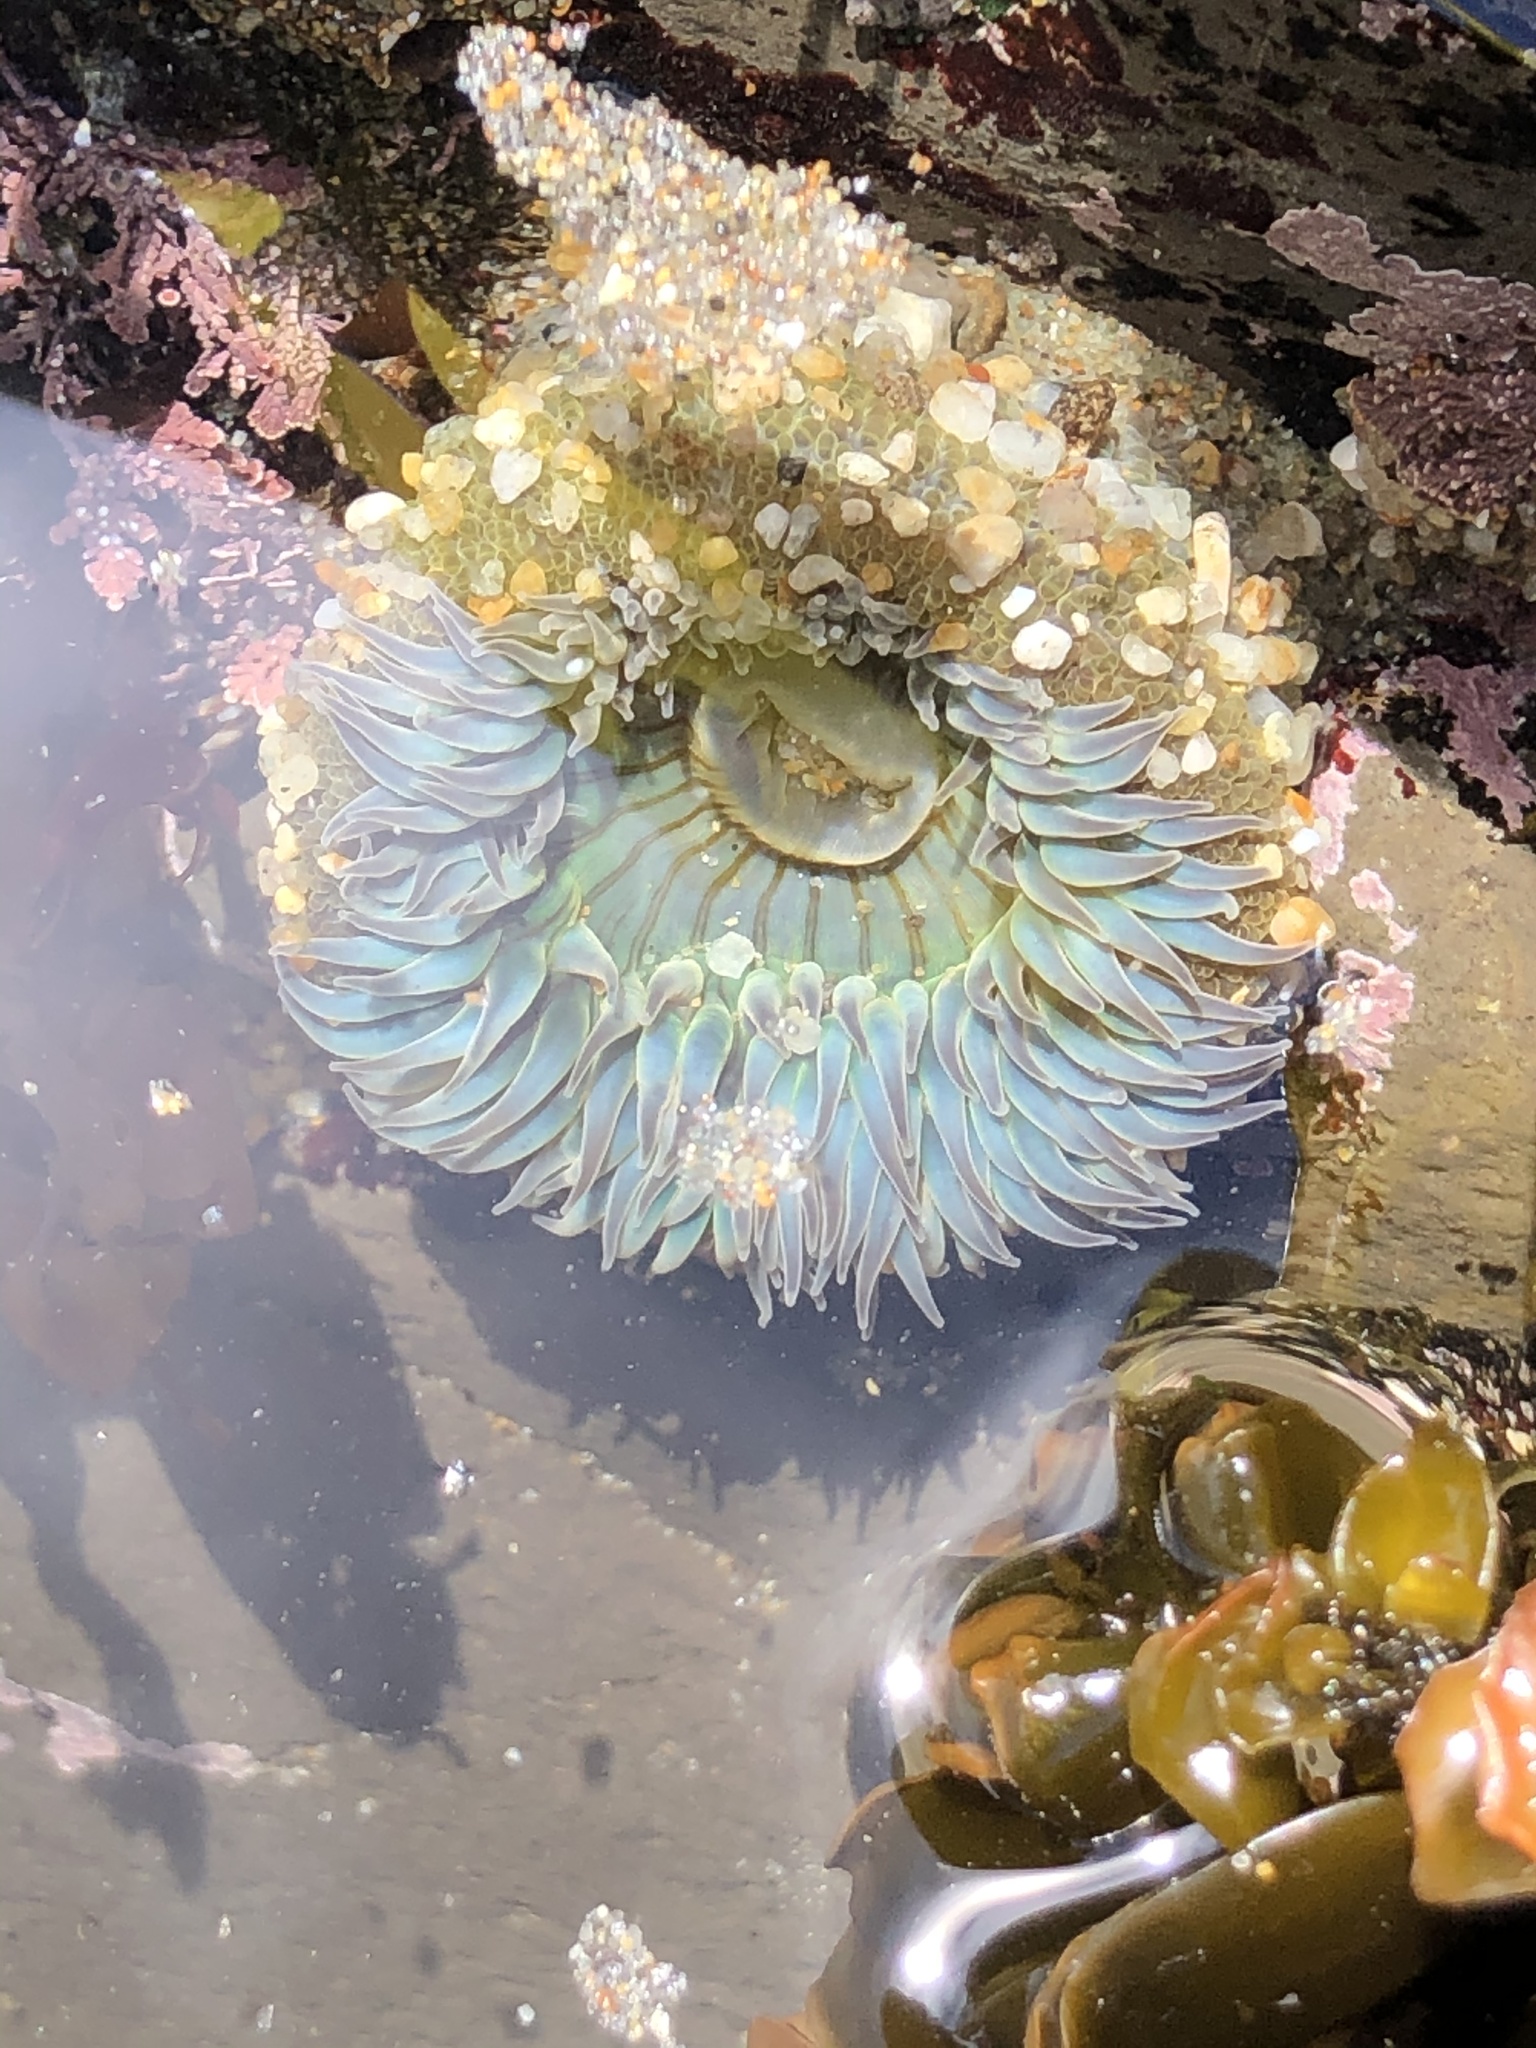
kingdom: Animalia
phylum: Cnidaria
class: Anthozoa
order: Actiniaria
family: Actiniidae
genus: Anthopleura
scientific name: Anthopleura sola
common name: Sun anemone
